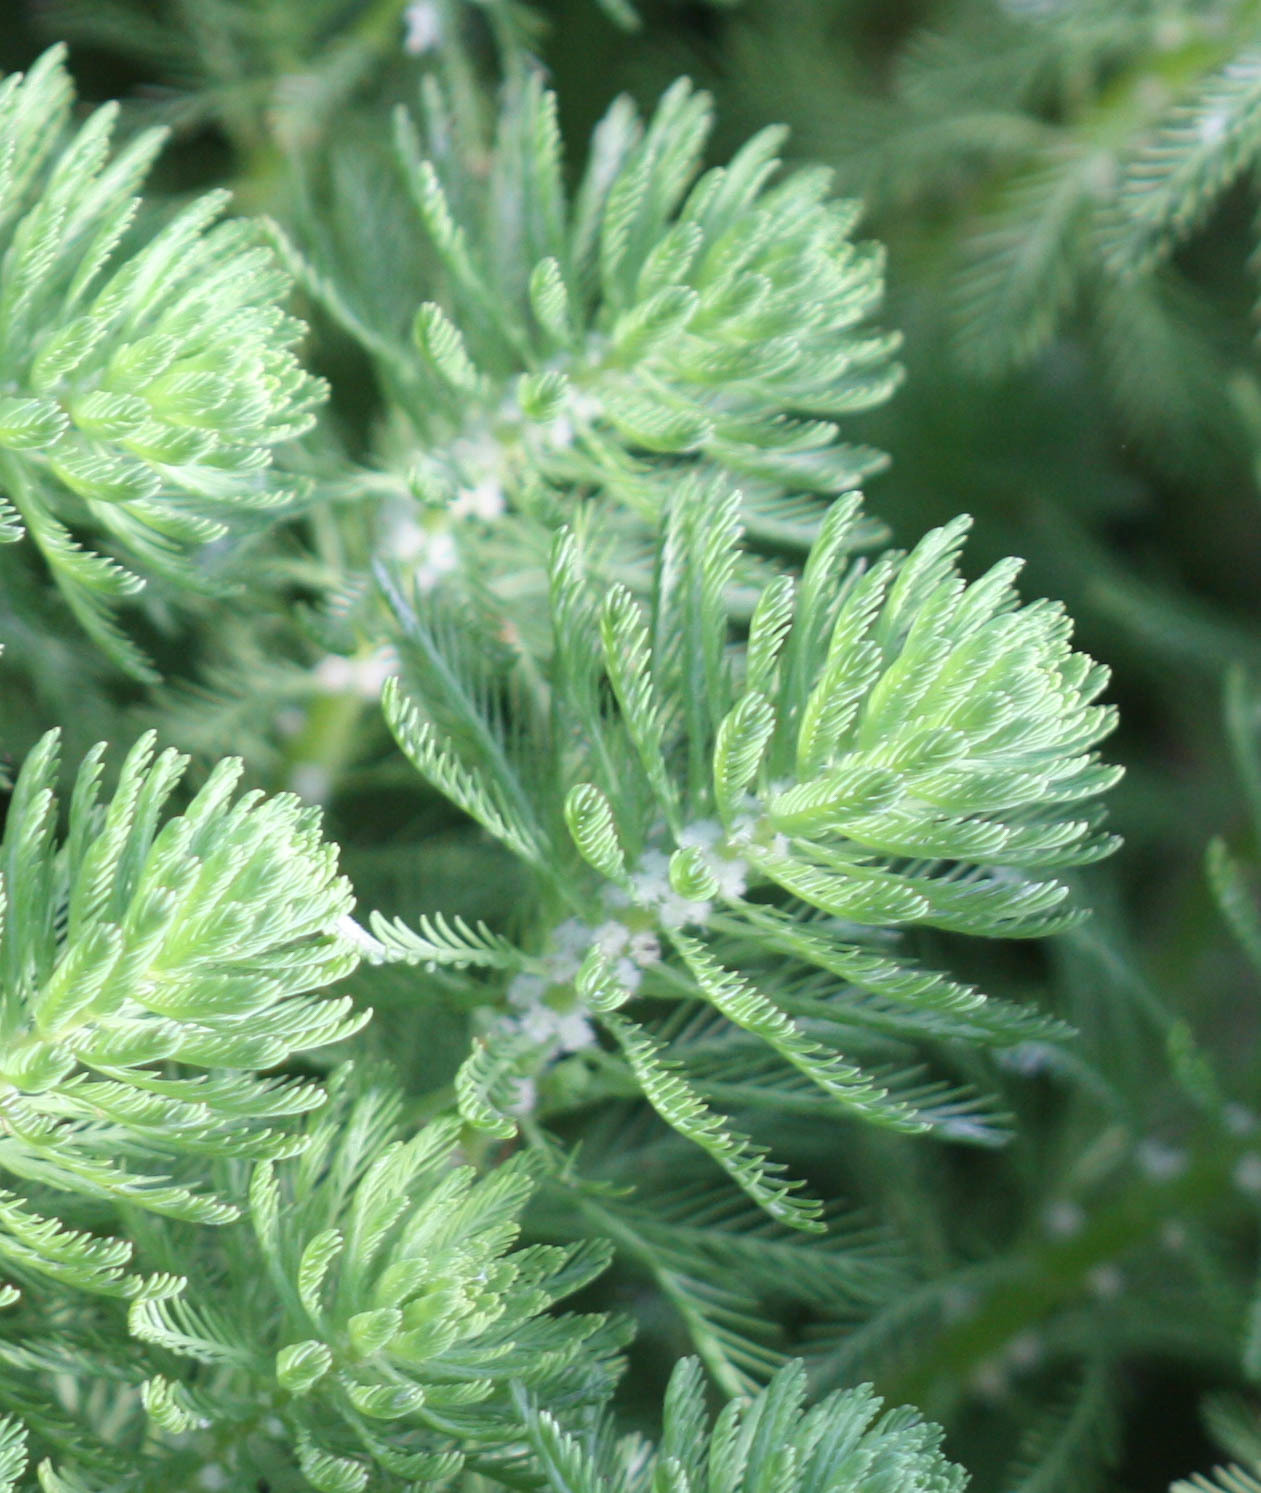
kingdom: Plantae
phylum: Tracheophyta
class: Magnoliopsida
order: Saxifragales
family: Haloragaceae
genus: Myriophyllum
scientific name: Myriophyllum aquaticum
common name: Parrot's feather
